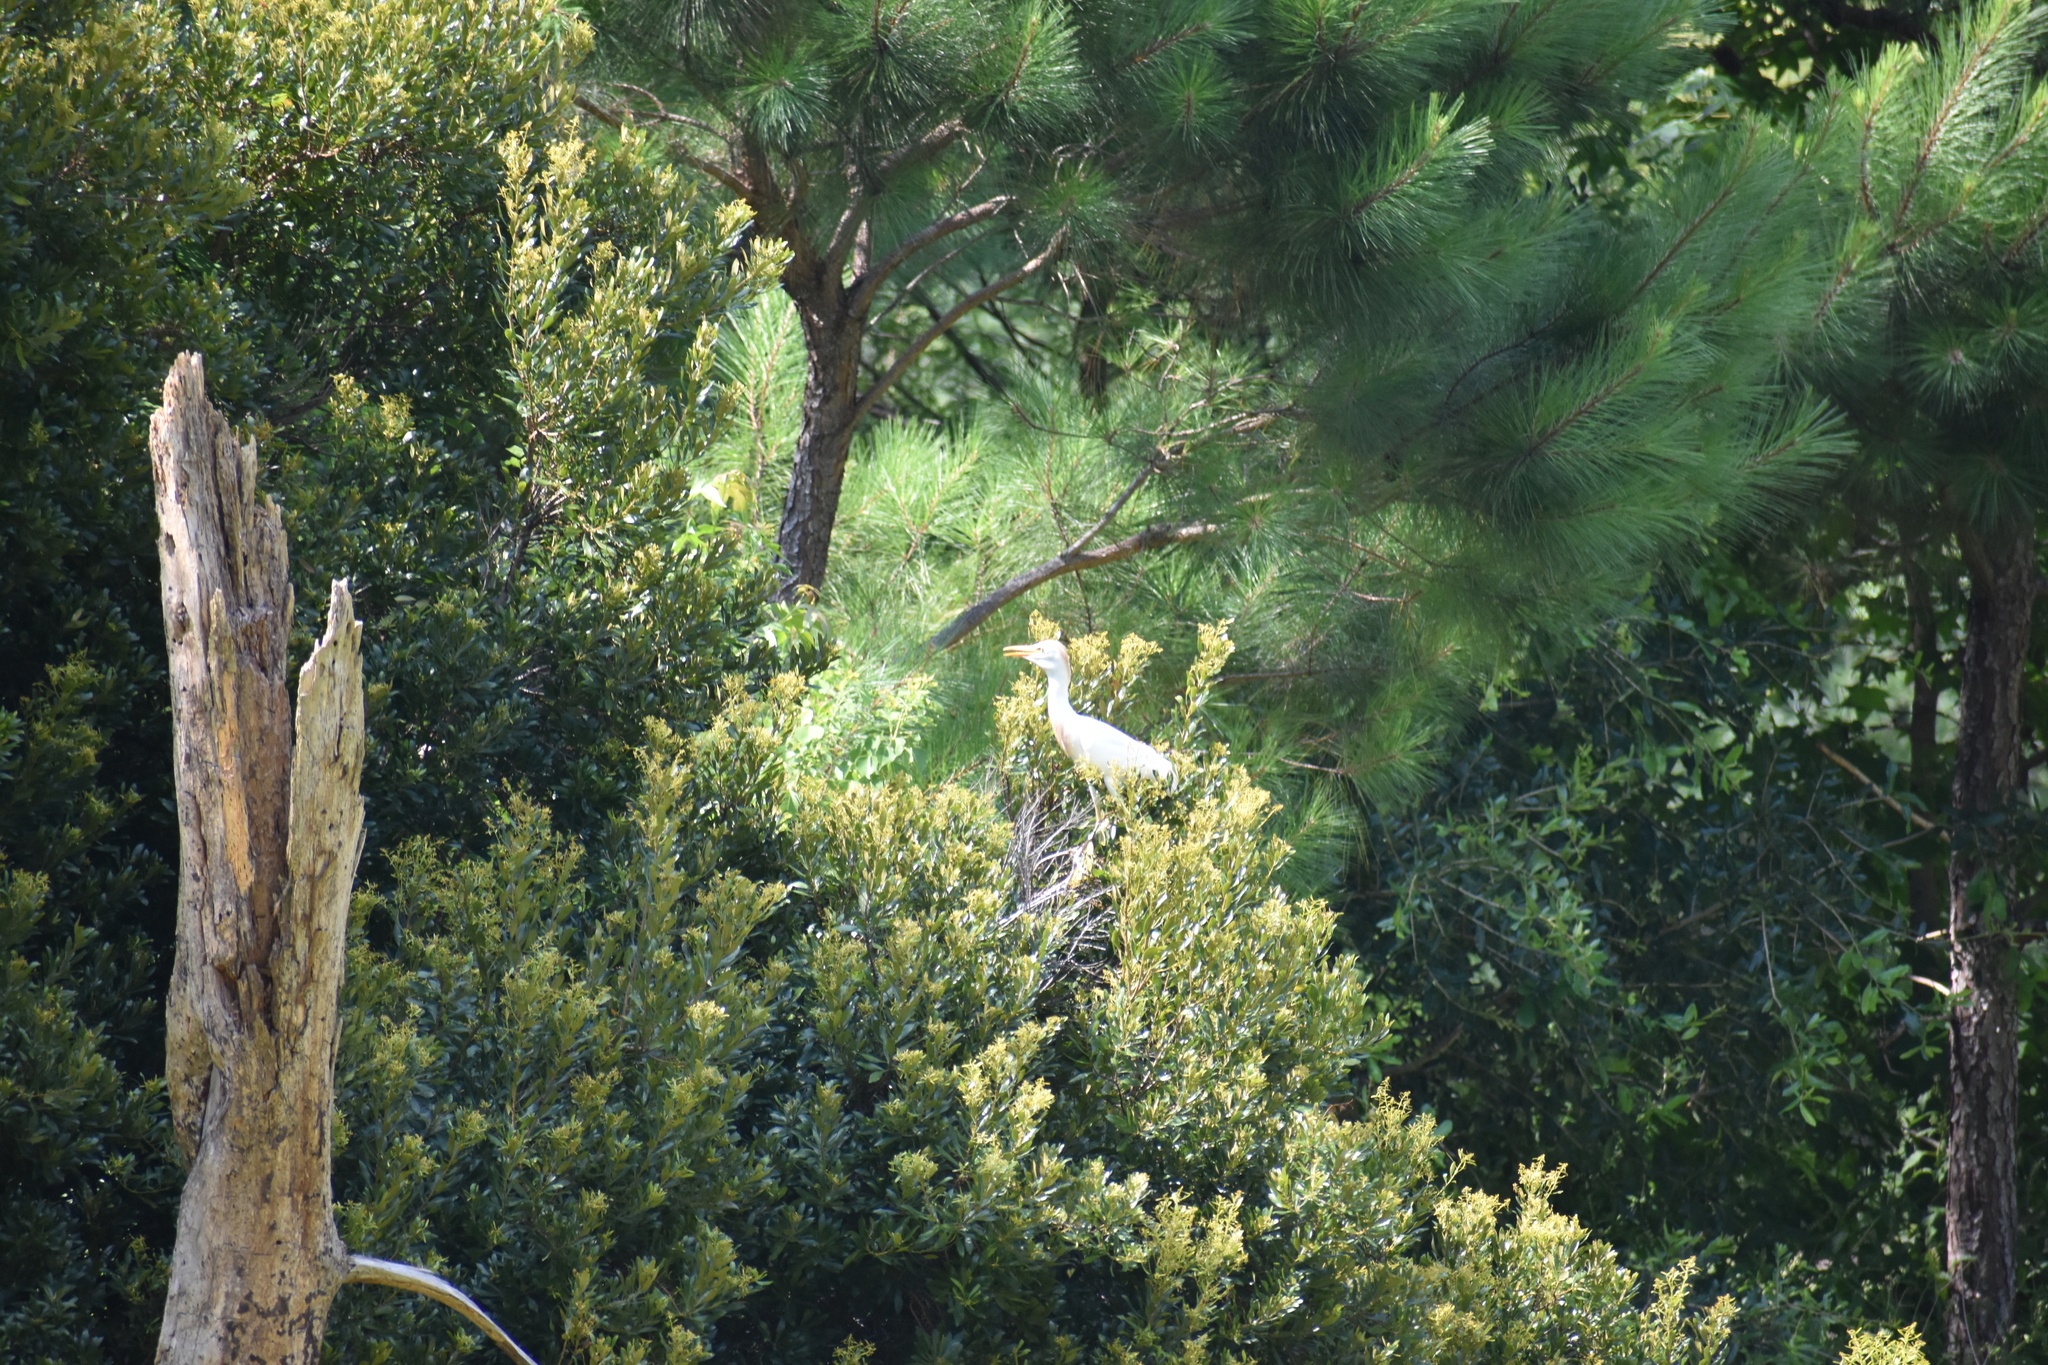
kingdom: Animalia
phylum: Chordata
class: Aves
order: Pelecaniformes
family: Ardeidae
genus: Bubulcus
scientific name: Bubulcus ibis
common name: Cattle egret
